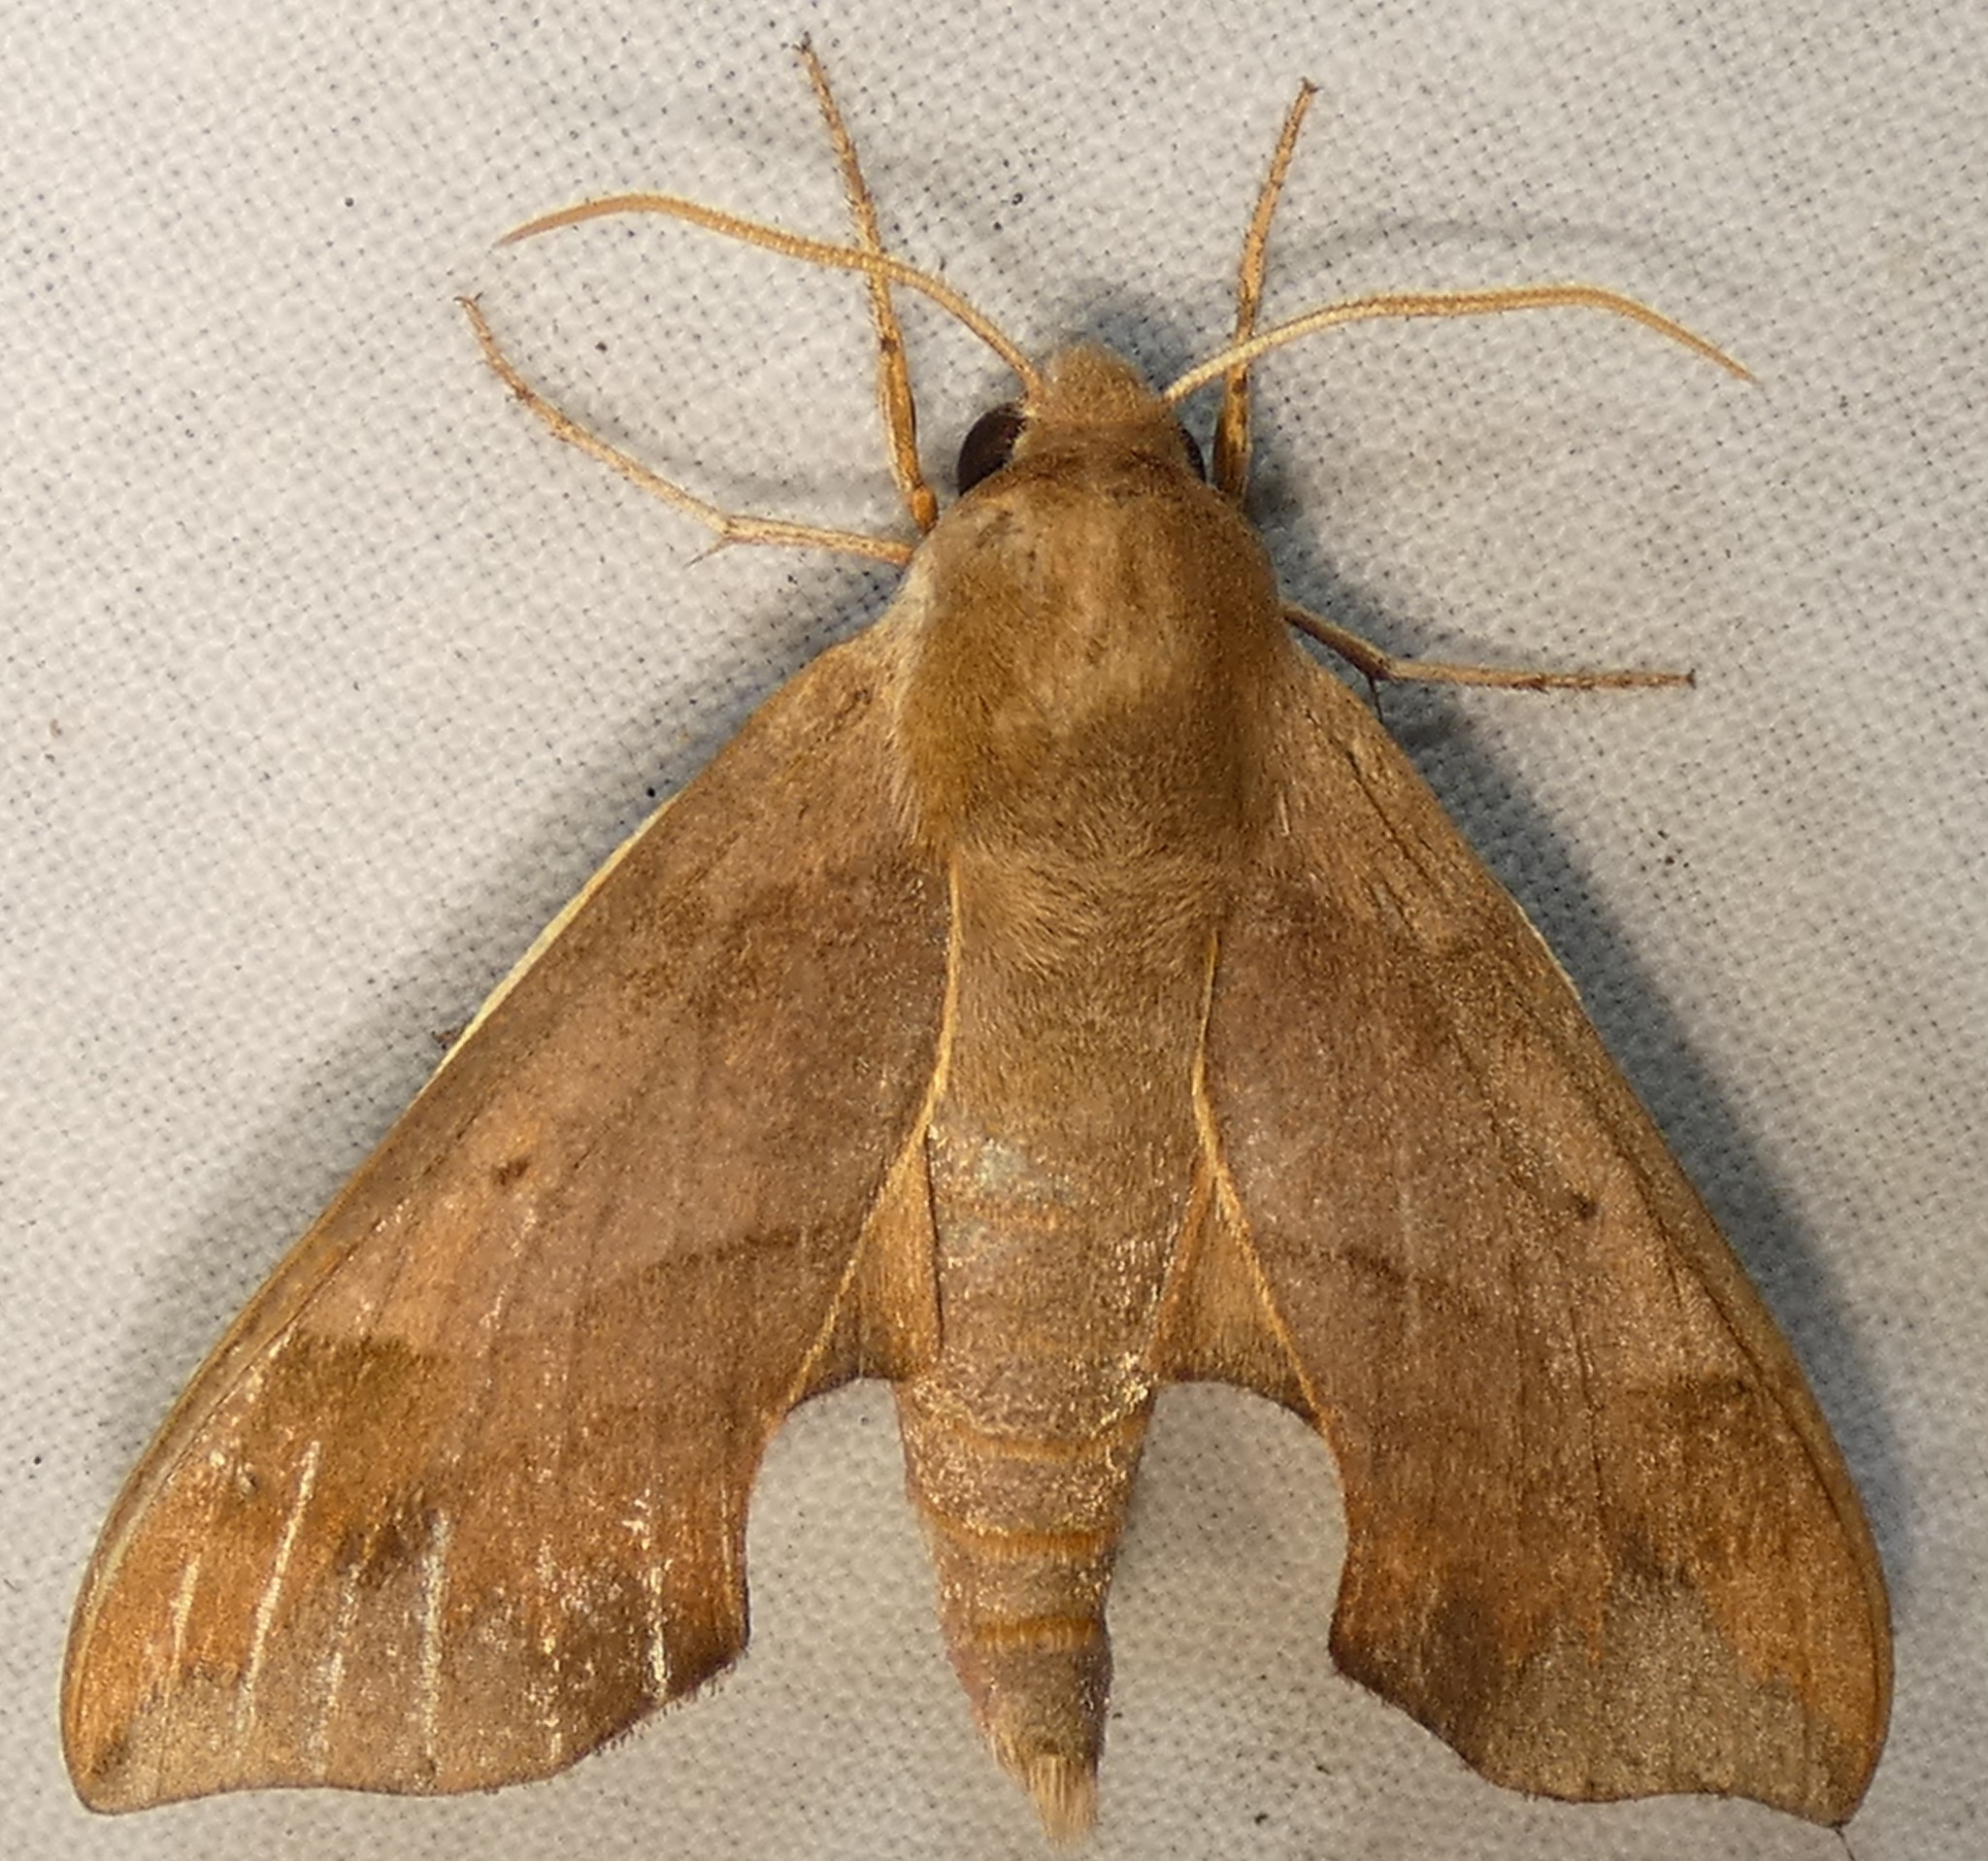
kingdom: Animalia
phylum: Arthropoda
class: Insecta
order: Lepidoptera
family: Sphingidae
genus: Darapsa
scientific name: Darapsa myron
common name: Hog sphinx
